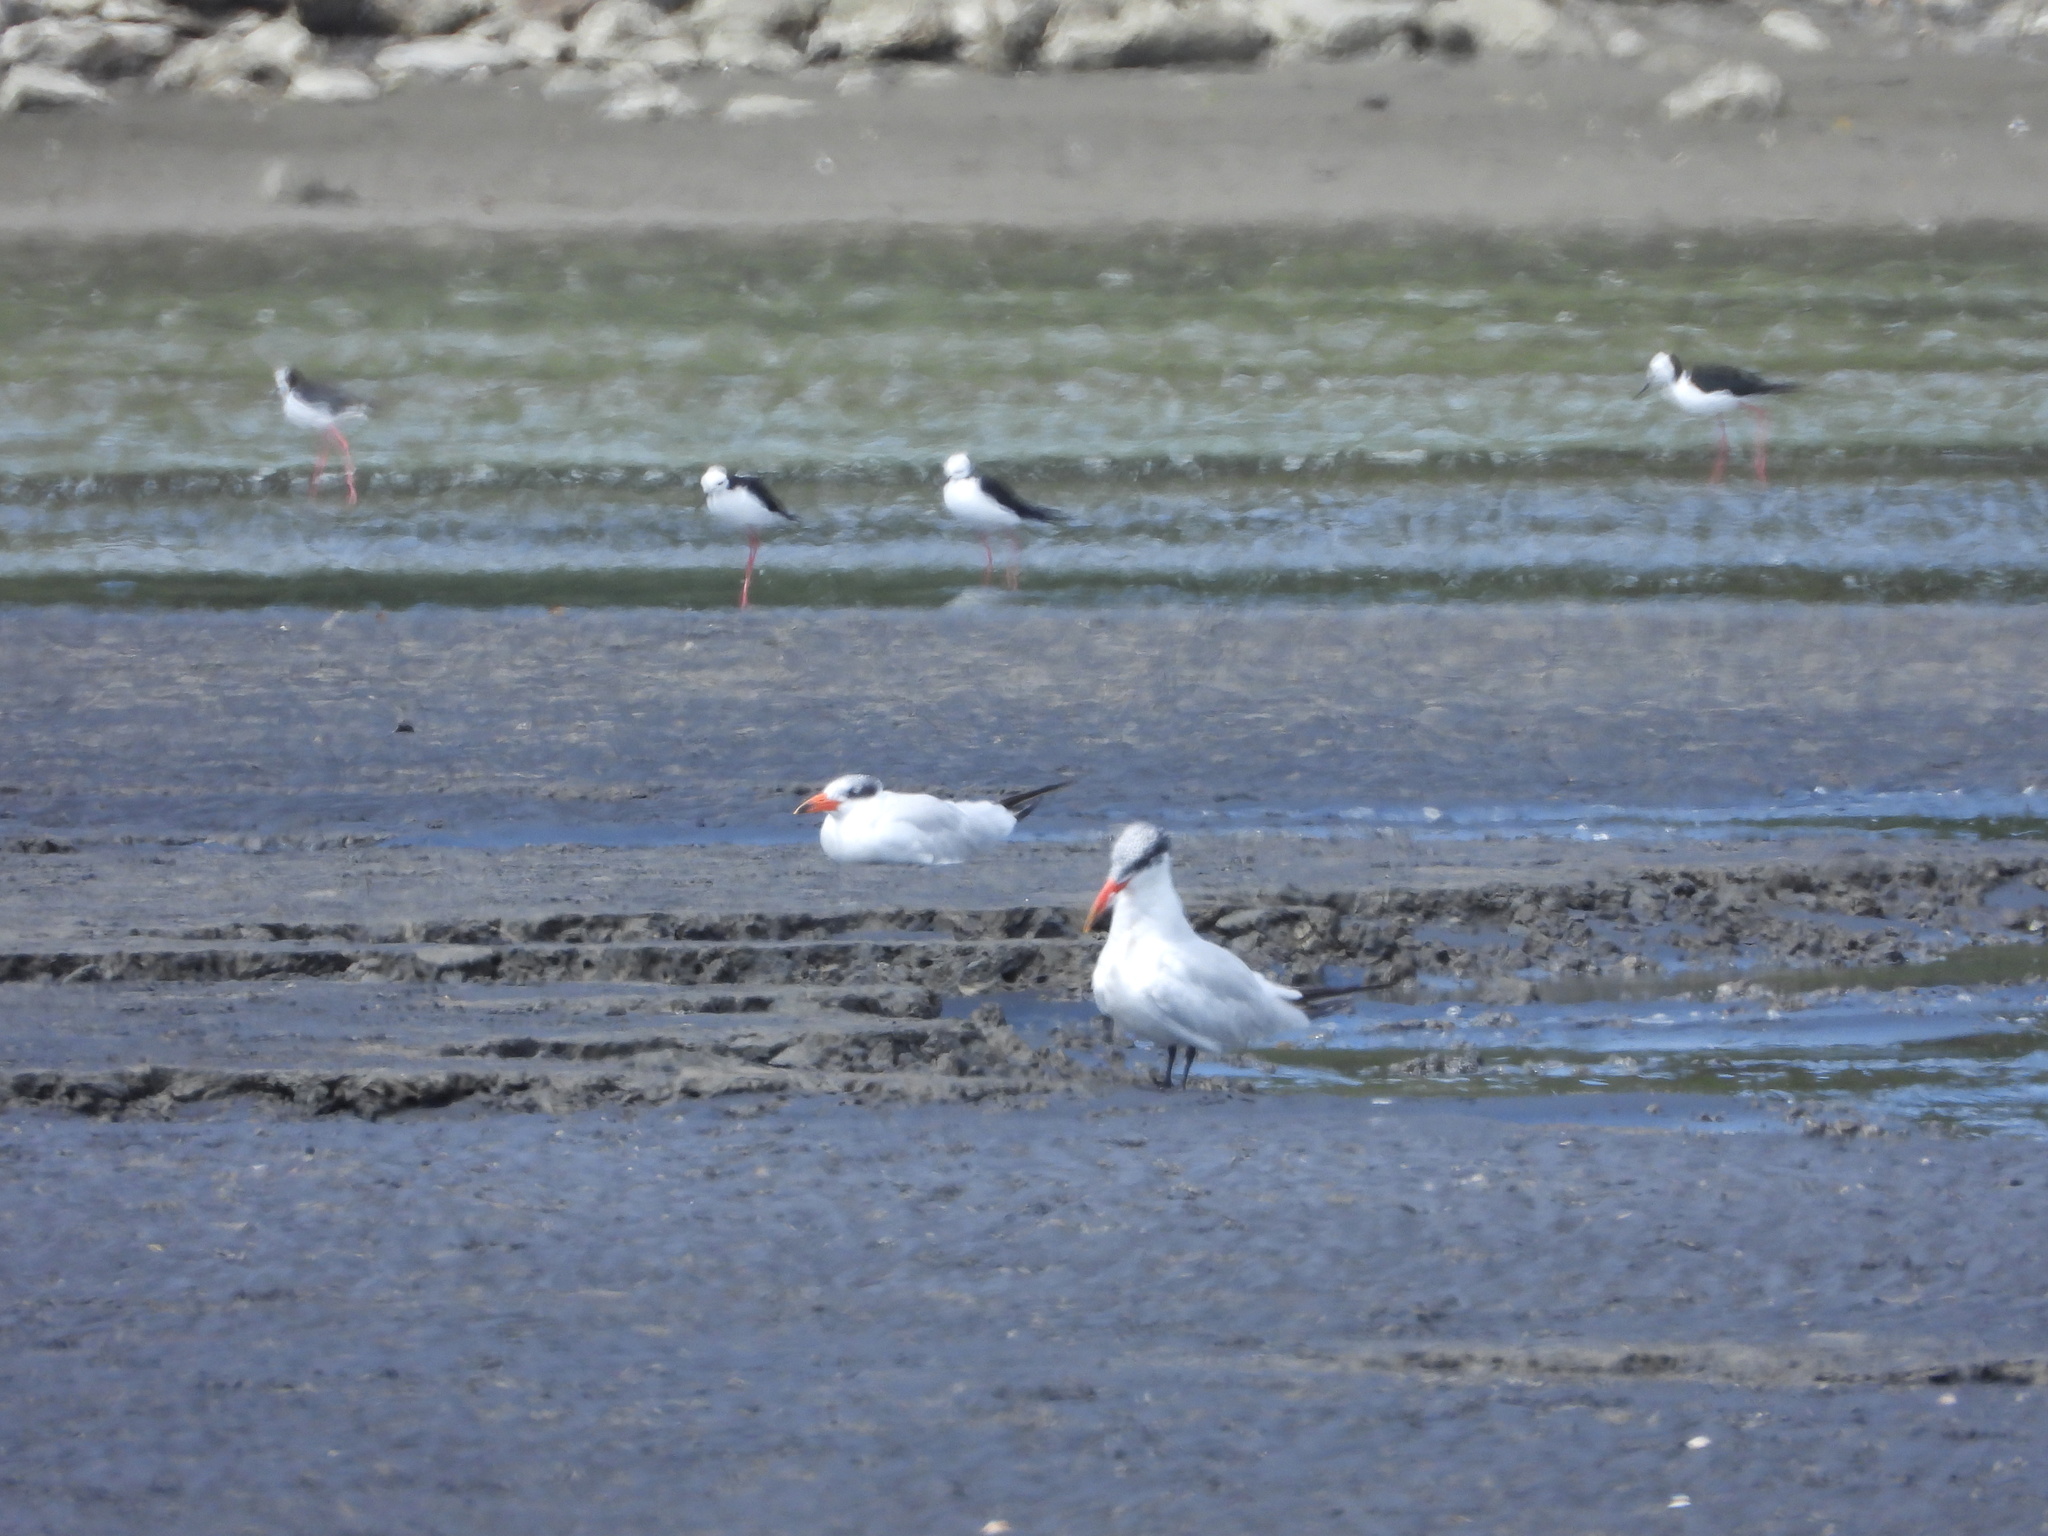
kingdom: Animalia
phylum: Chordata
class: Aves
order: Charadriiformes
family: Laridae
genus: Hydroprogne
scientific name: Hydroprogne caspia
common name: Caspian tern
